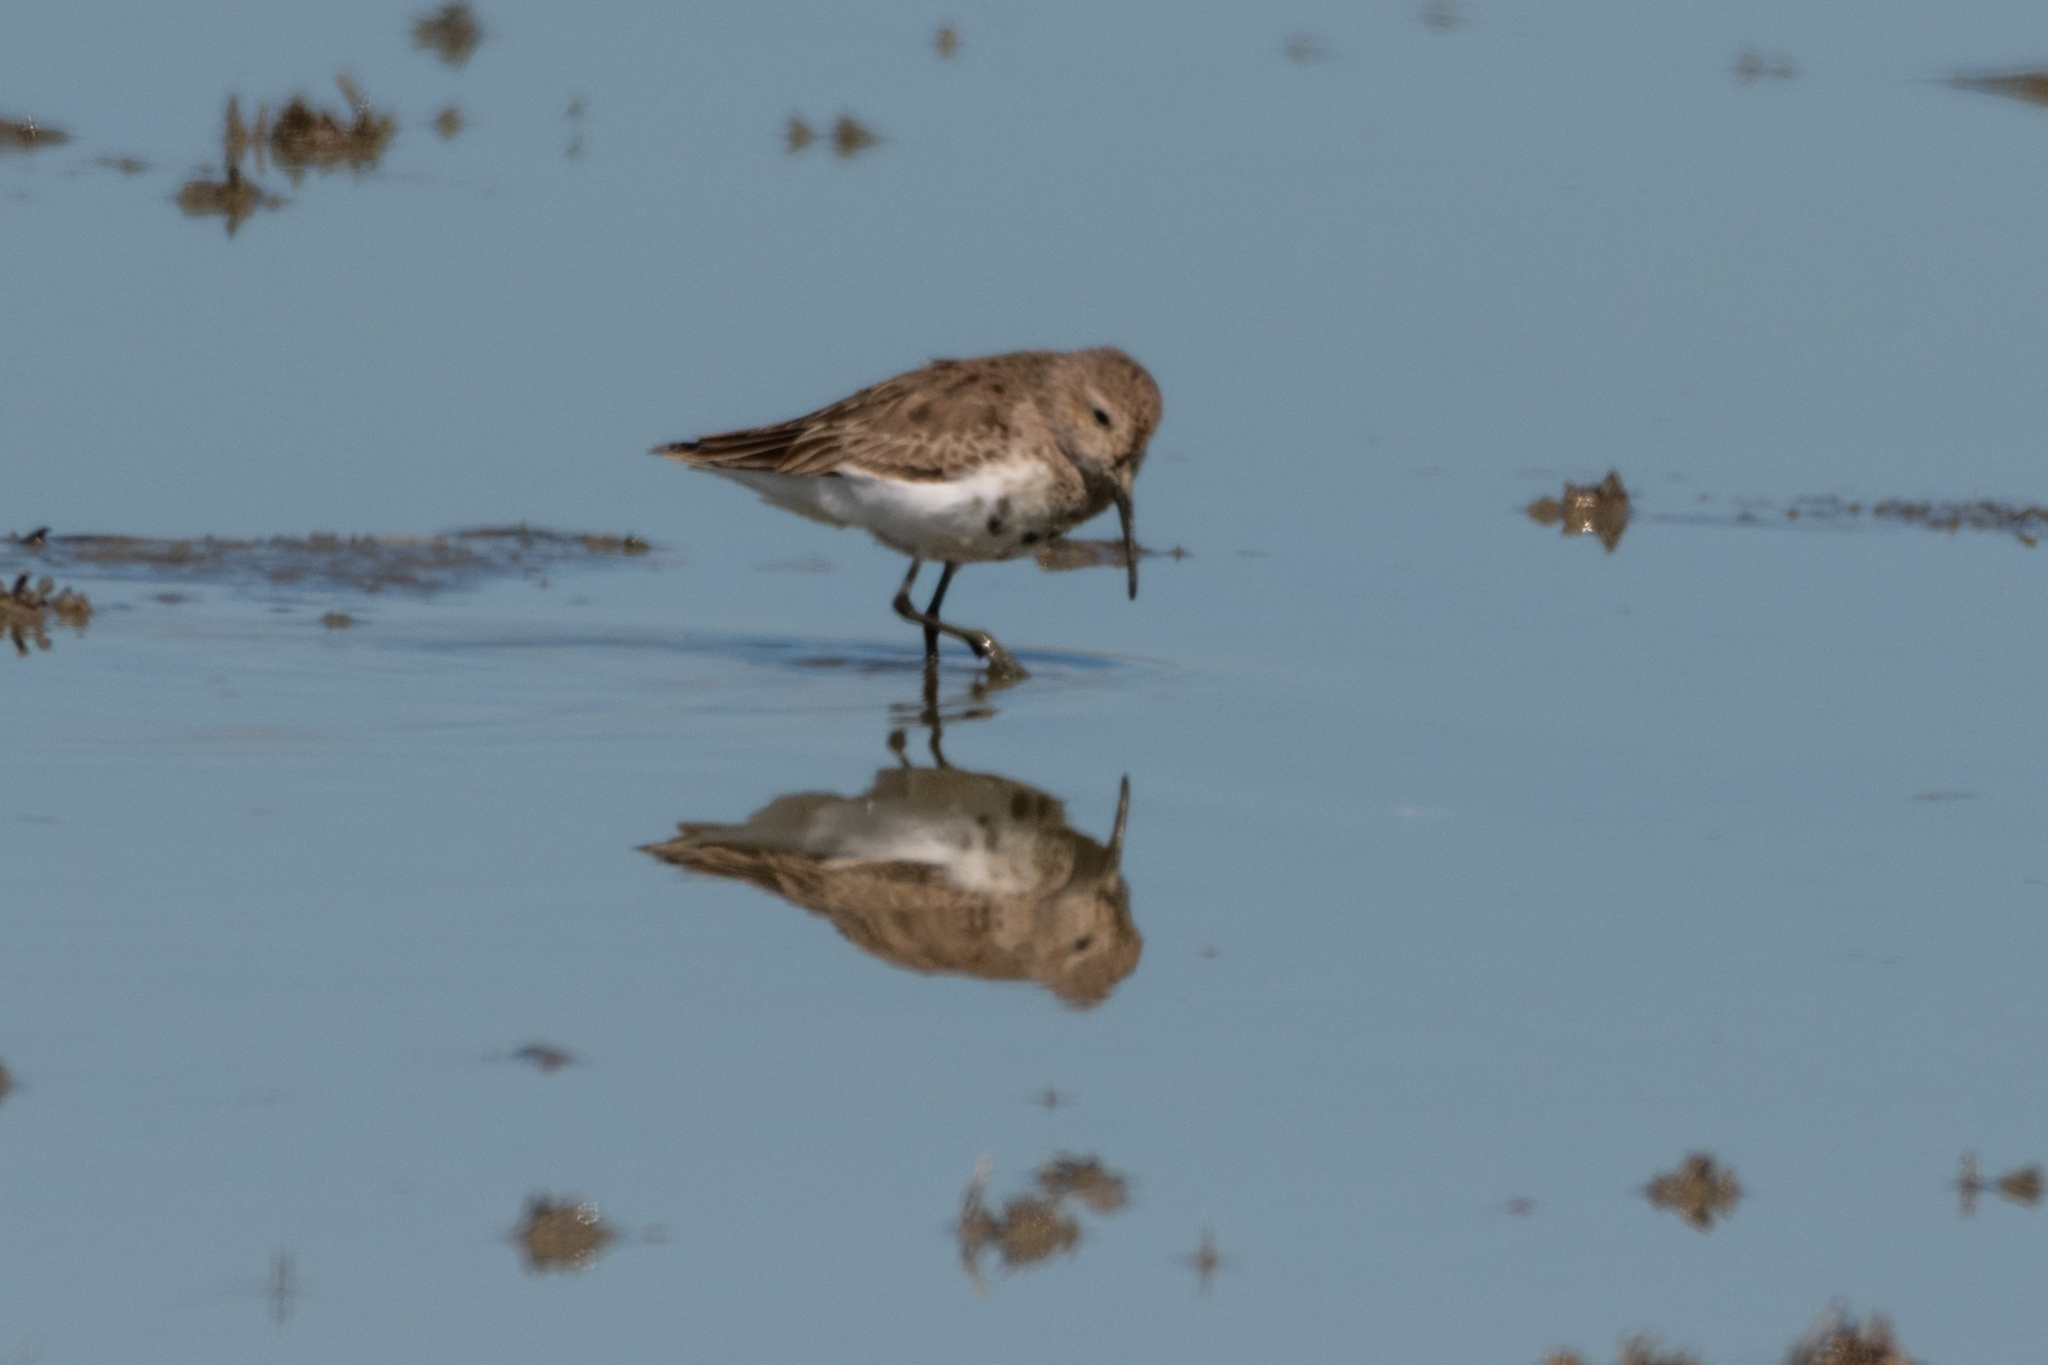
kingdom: Animalia
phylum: Chordata
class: Aves
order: Charadriiformes
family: Scolopacidae
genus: Calidris
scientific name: Calidris alpina
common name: Dunlin
